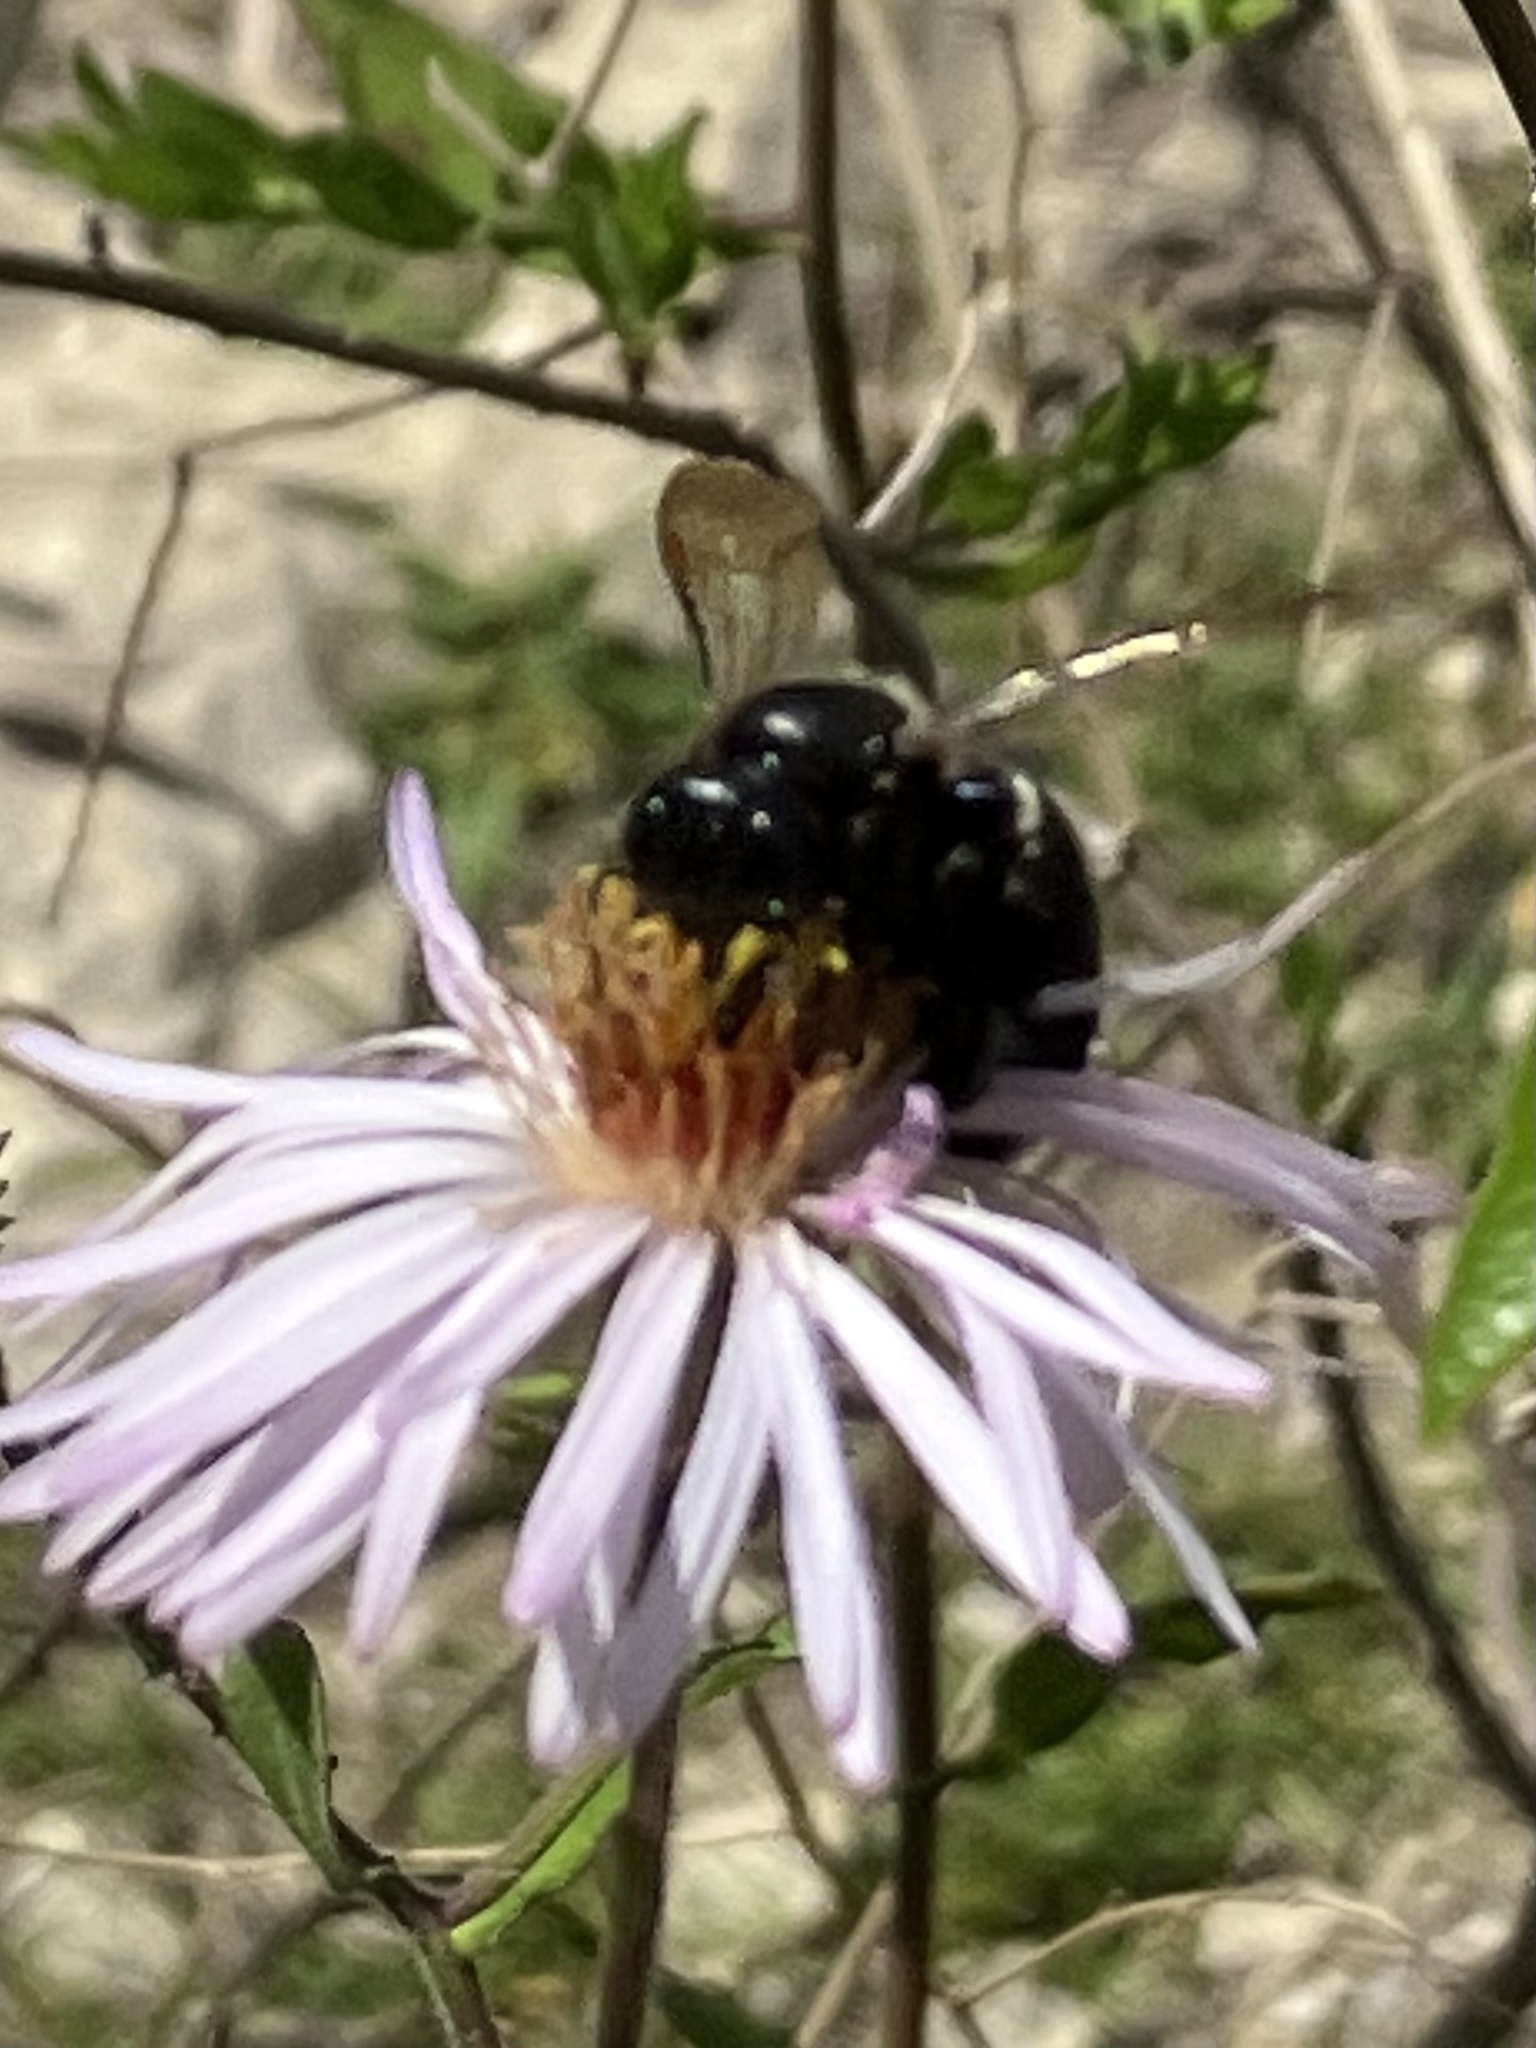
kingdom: Animalia
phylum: Arthropoda
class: Insecta
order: Hymenoptera
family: Apidae
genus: Xylocopa
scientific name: Xylocopa micans
